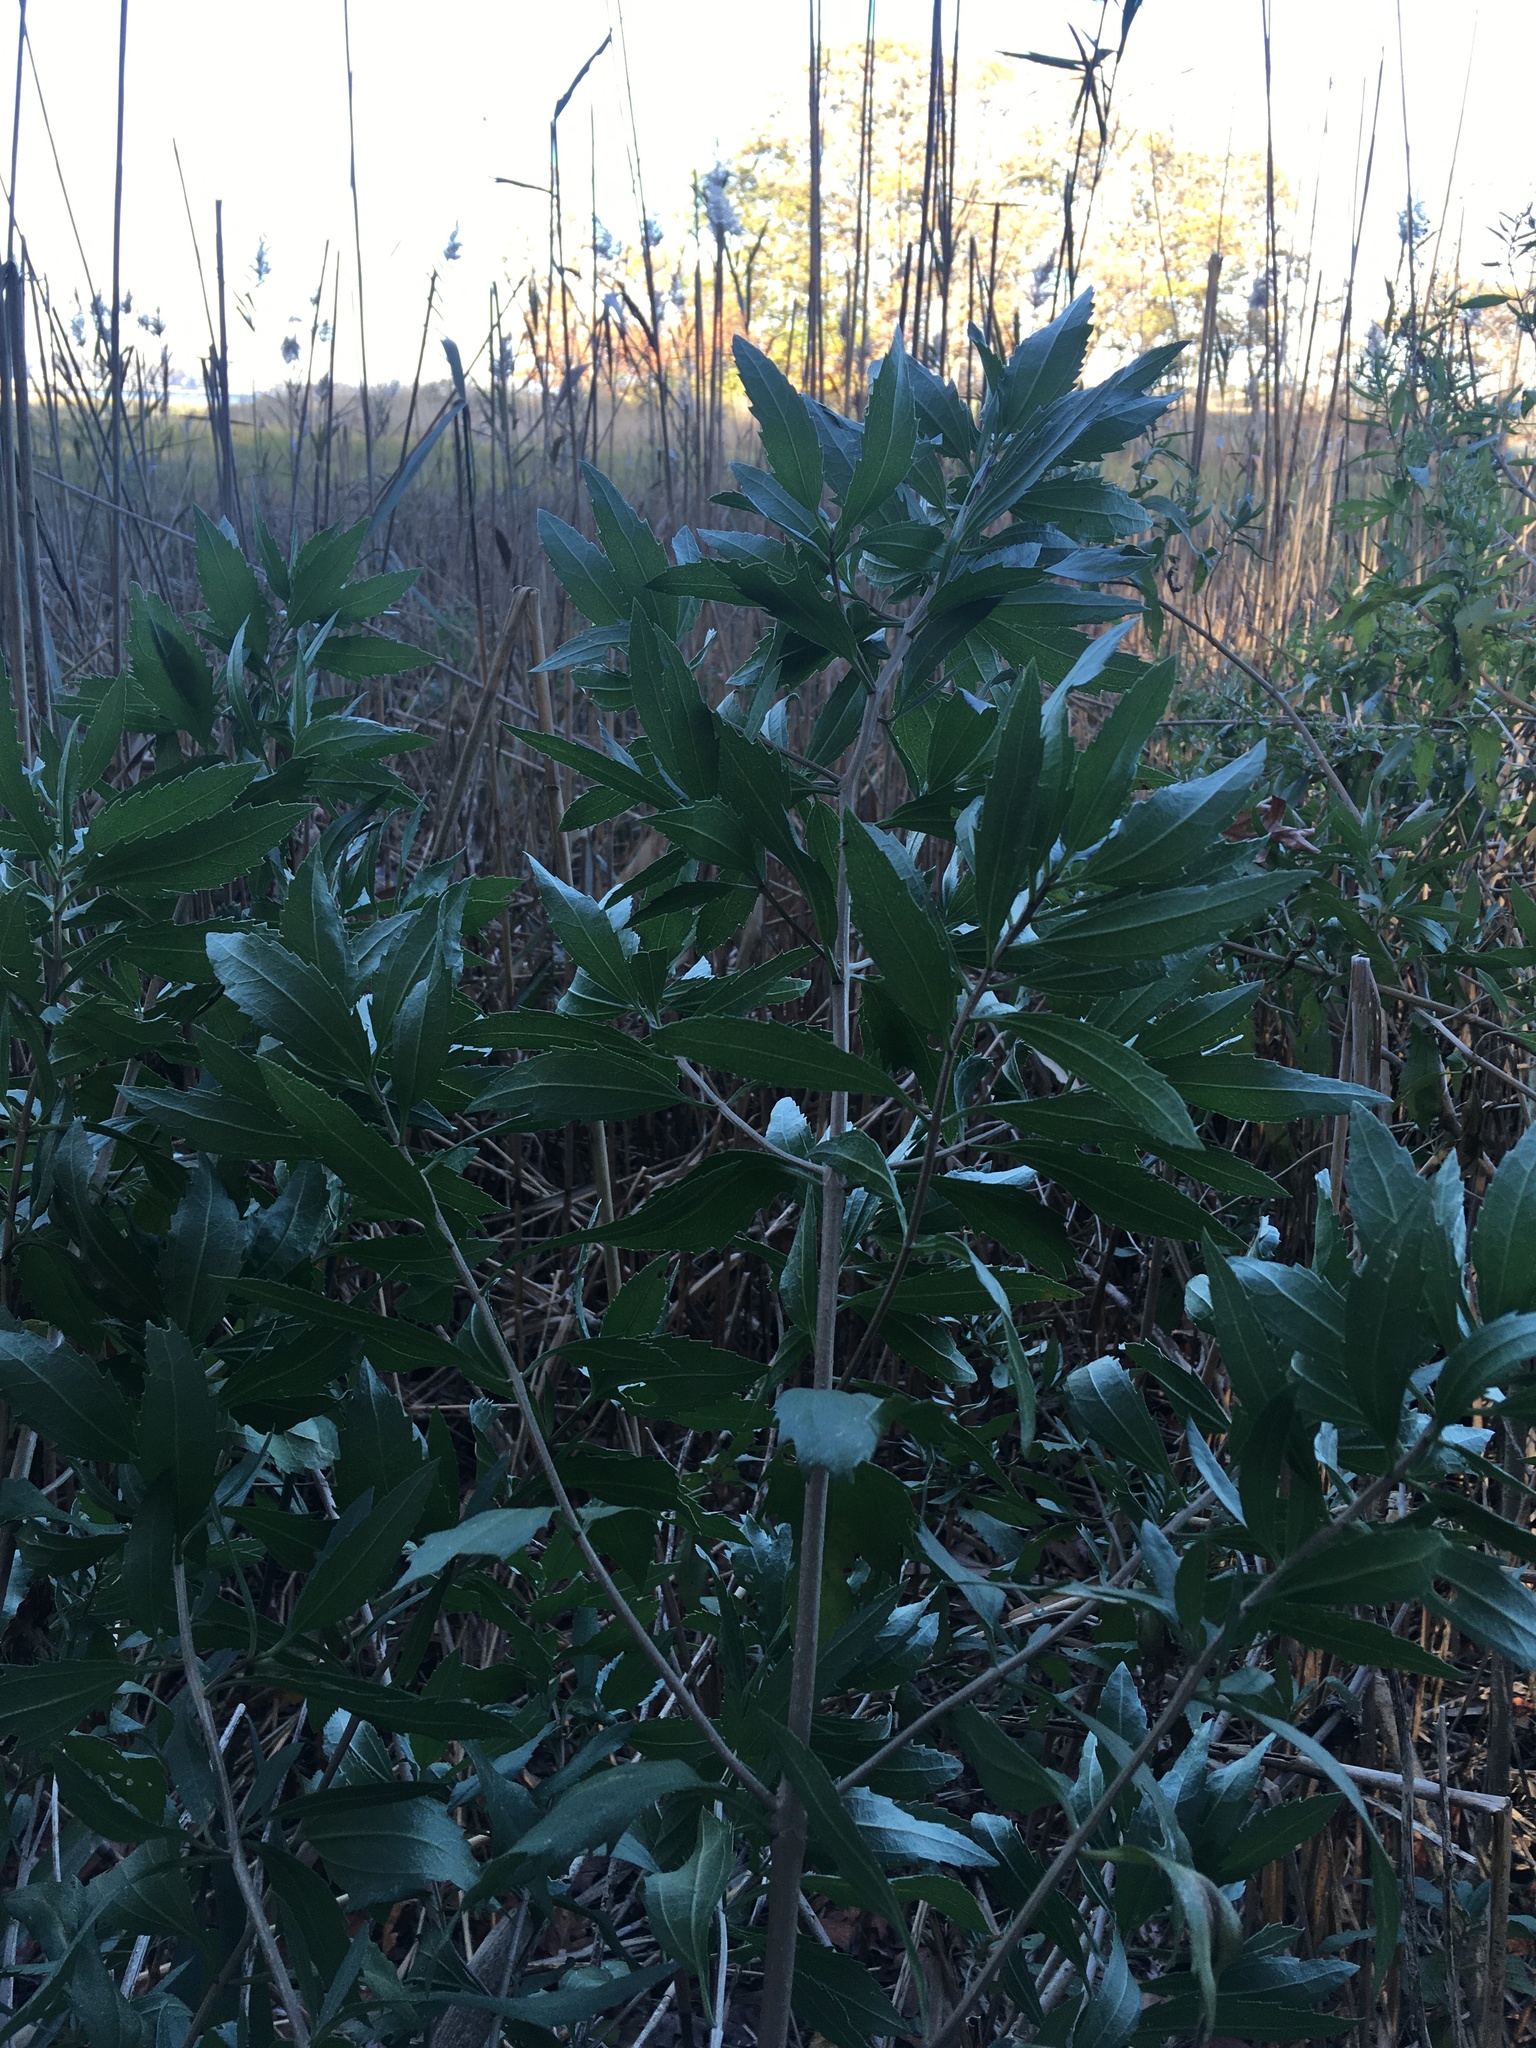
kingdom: Plantae
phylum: Tracheophyta
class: Magnoliopsida
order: Asterales
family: Asteraceae
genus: Iva
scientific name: Iva frutescens
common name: Big-leaved marsh-elder
